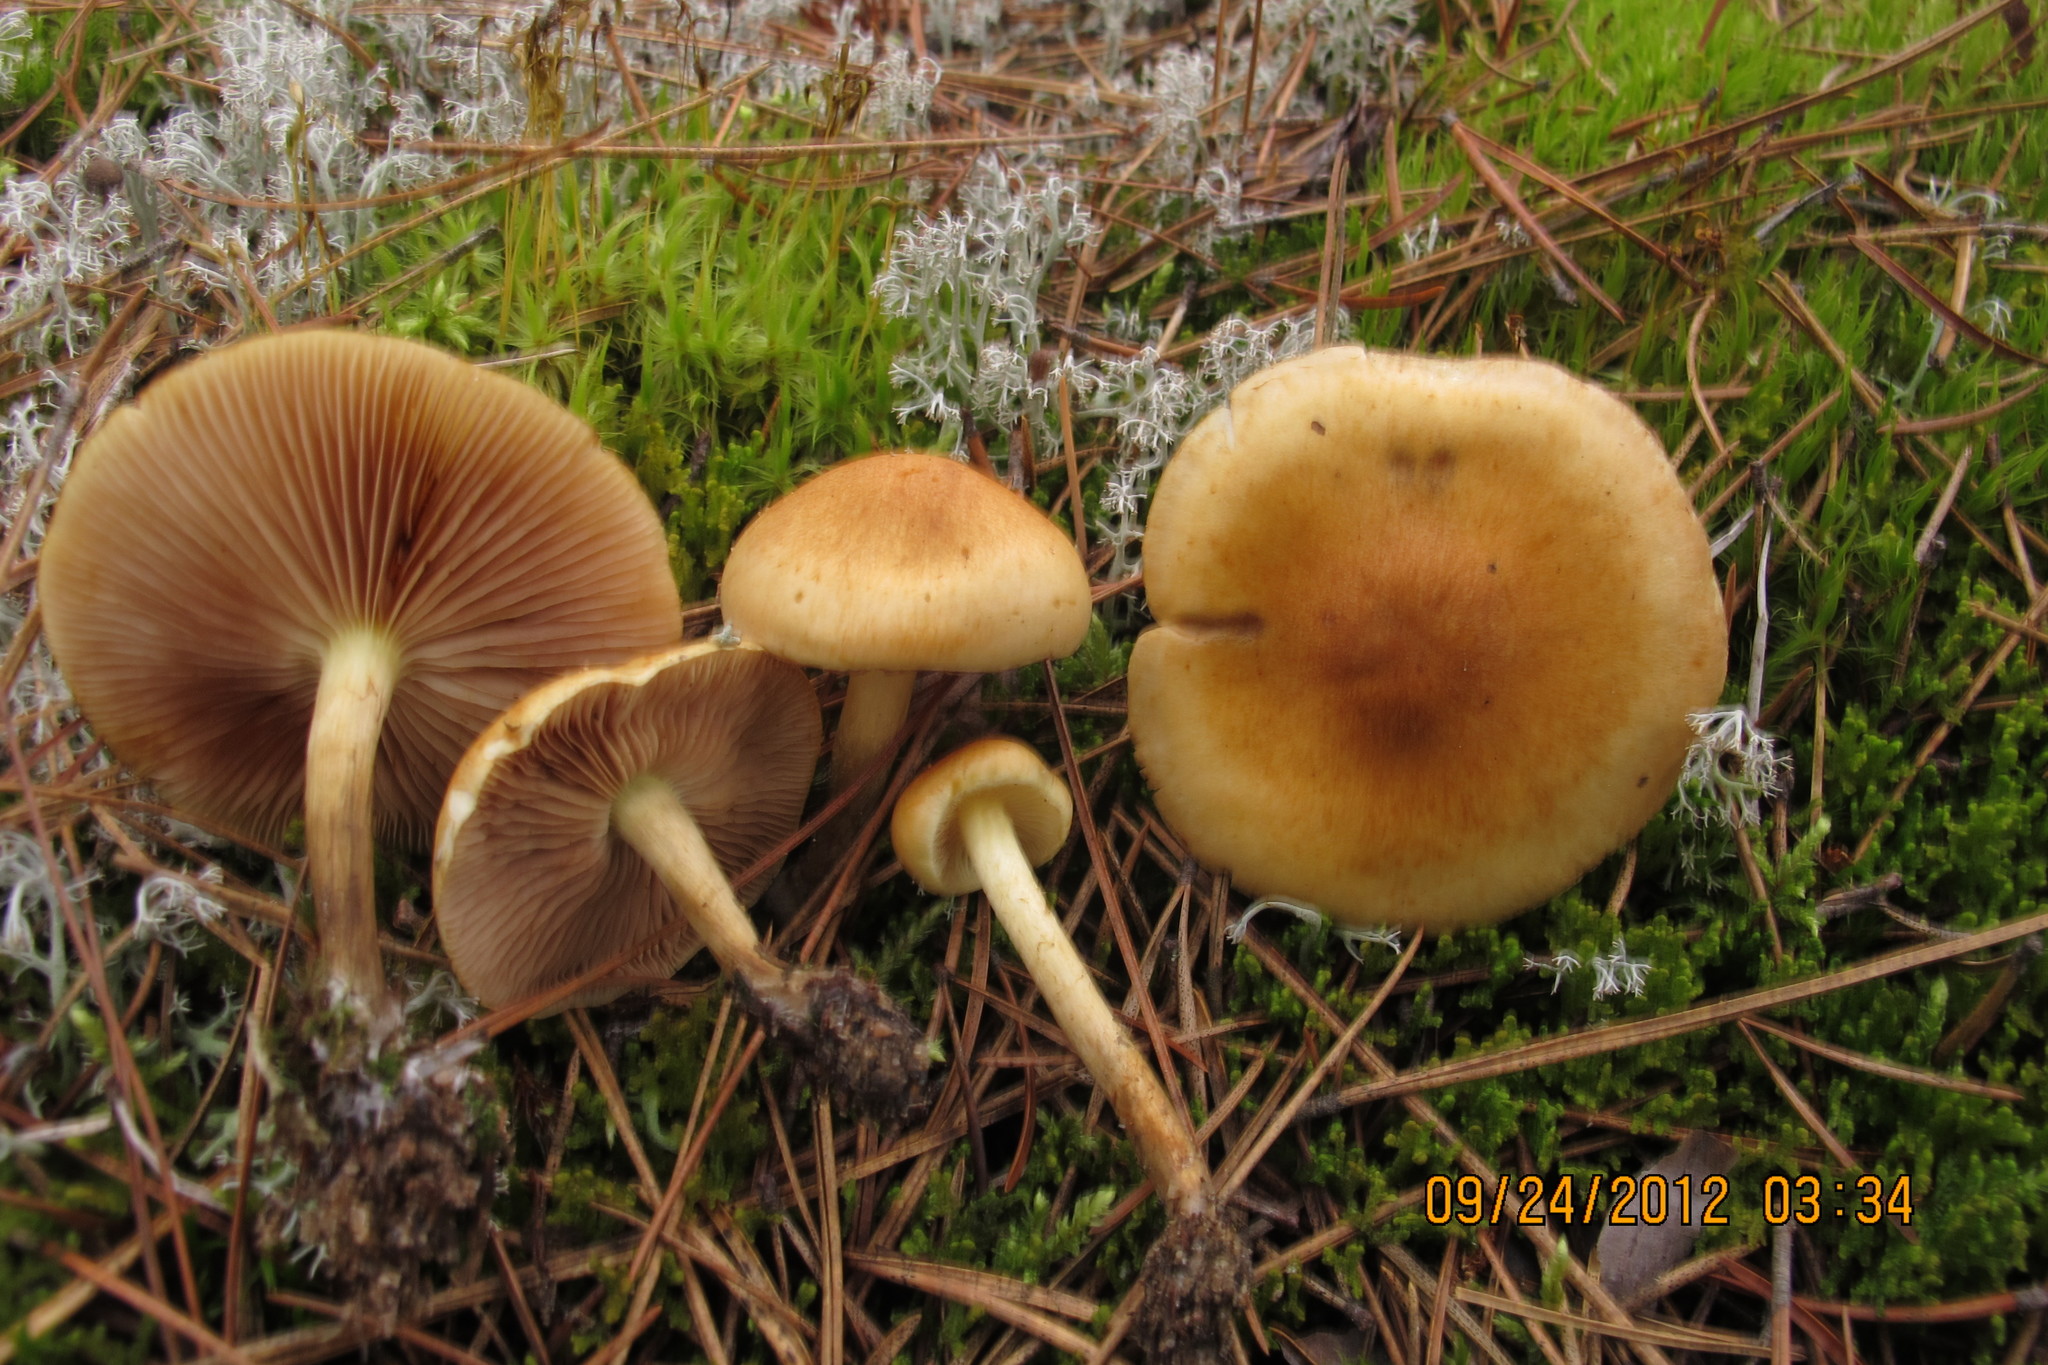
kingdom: Fungi
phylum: Basidiomycota
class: Agaricomycetes
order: Agaricales
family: Strophariaceae
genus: Pholiota
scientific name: Pholiota spumosa
